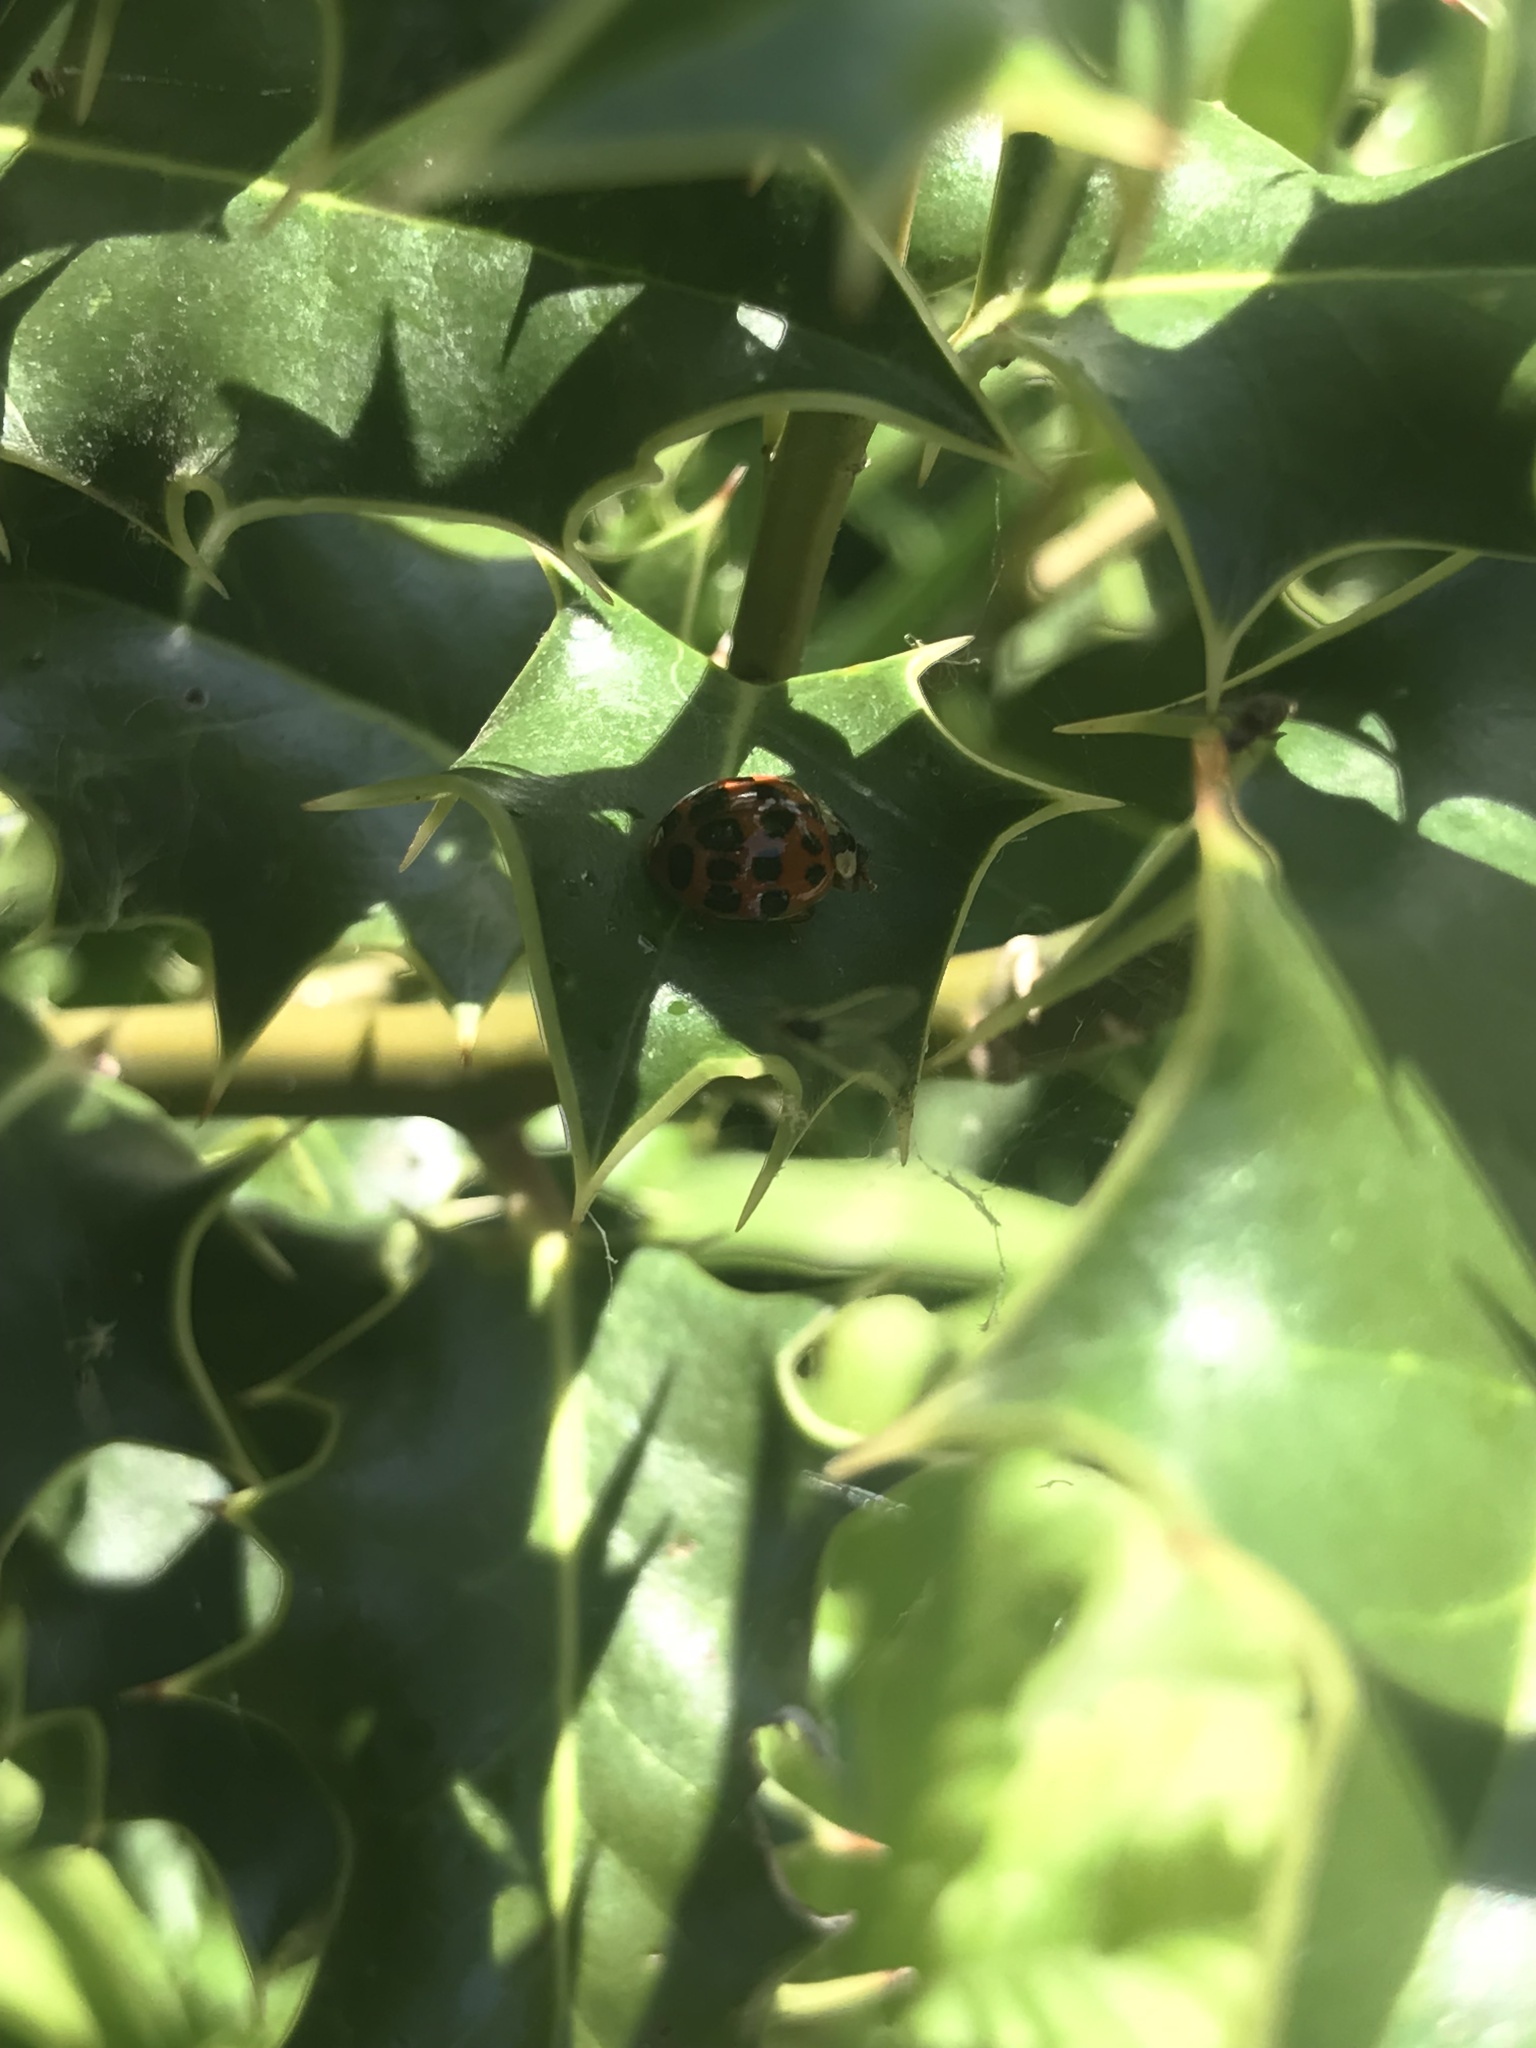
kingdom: Animalia
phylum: Arthropoda
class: Insecta
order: Coleoptera
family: Coccinellidae
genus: Harmonia
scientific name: Harmonia axyridis
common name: Harlequin ladybird
